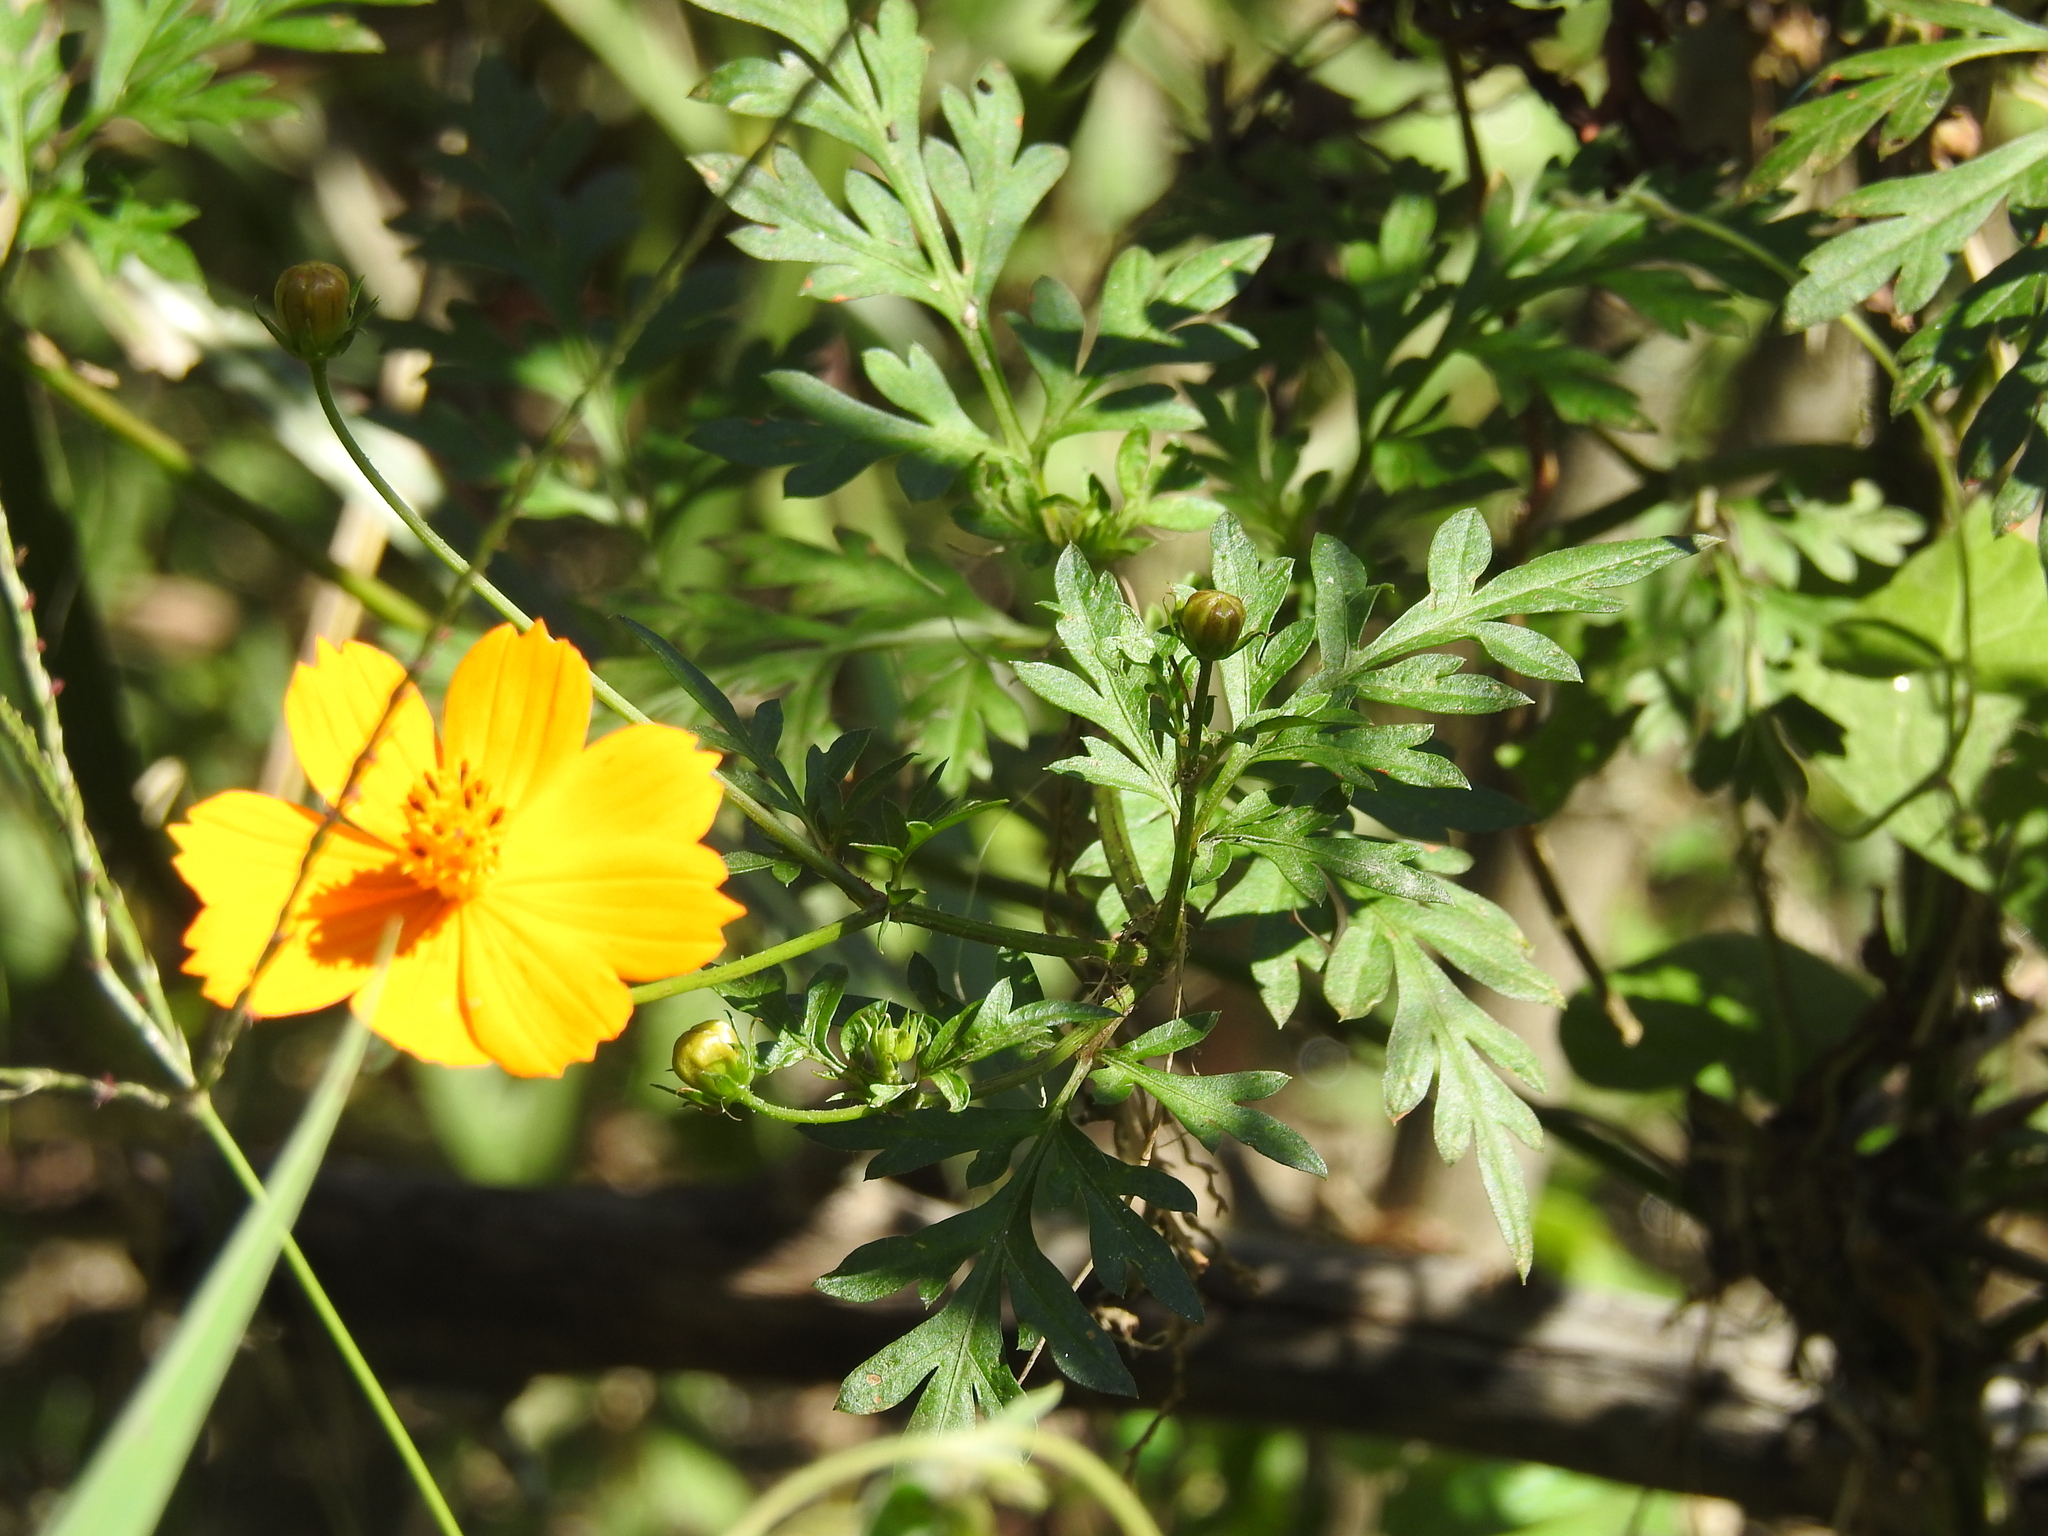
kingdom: Plantae
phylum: Tracheophyta
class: Magnoliopsida
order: Asterales
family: Asteraceae
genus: Cosmos
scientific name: Cosmos sulphureus
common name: Sulphur cosmos
